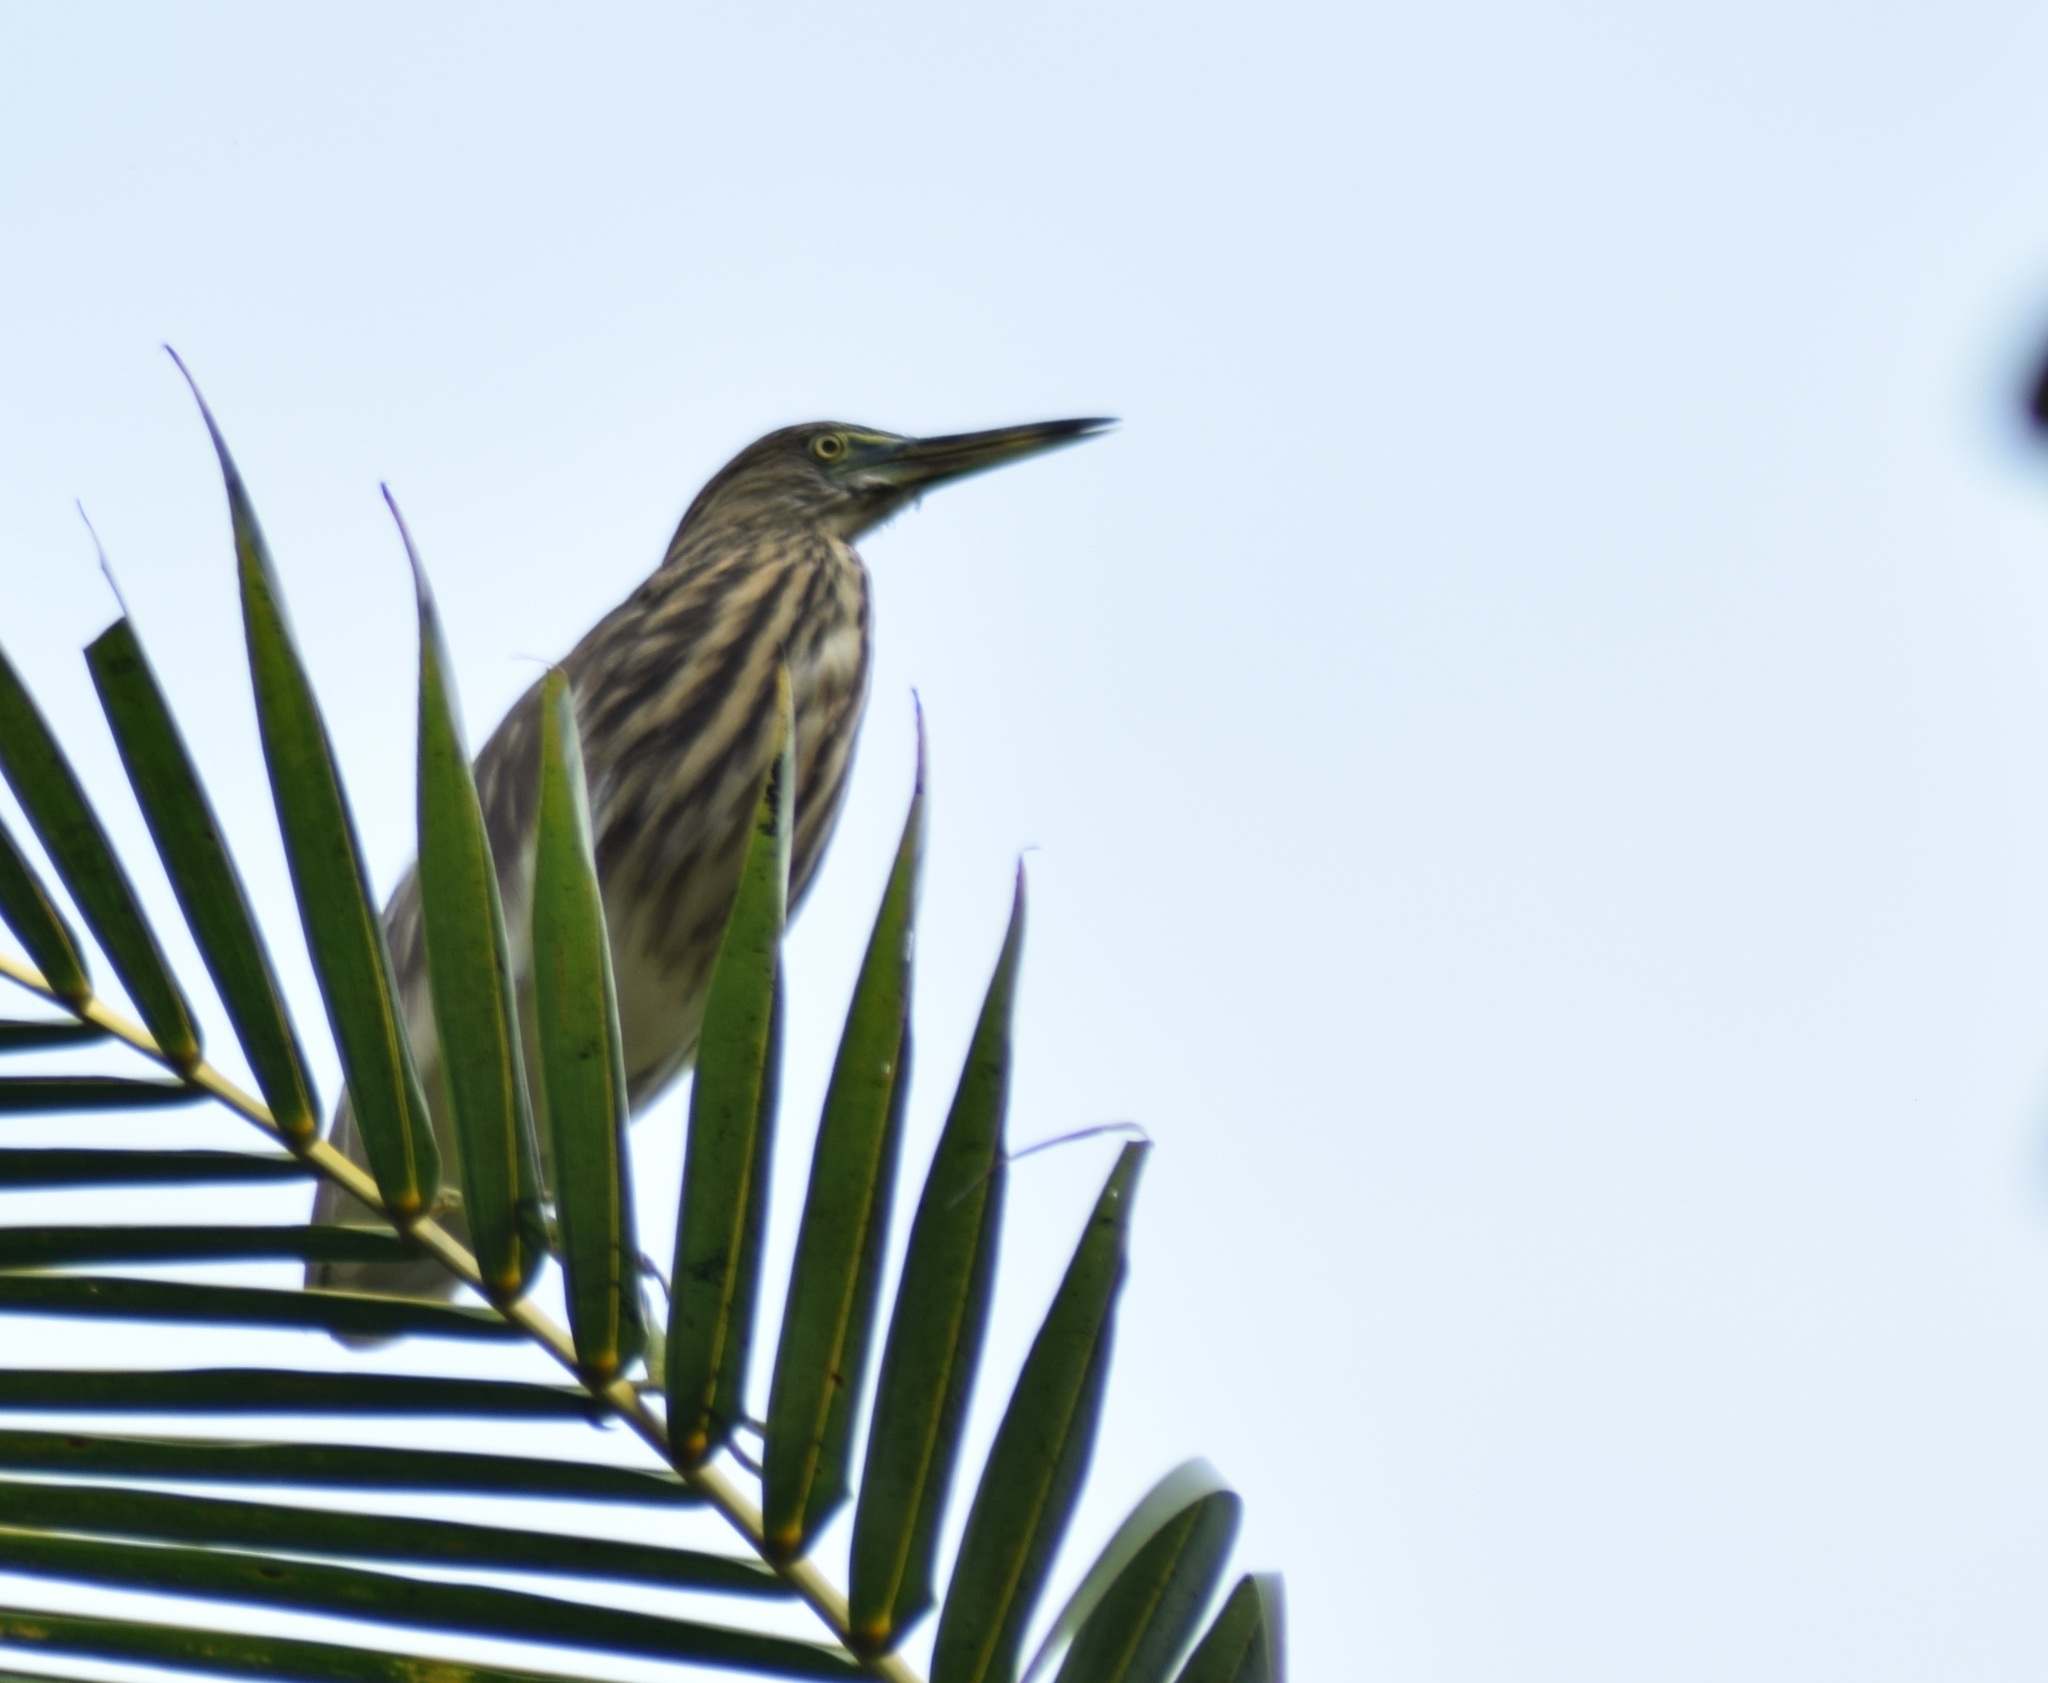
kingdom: Animalia
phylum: Chordata
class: Aves
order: Pelecaniformes
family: Ardeidae
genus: Ardeola
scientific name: Ardeola grayii
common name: Indian pond heron
